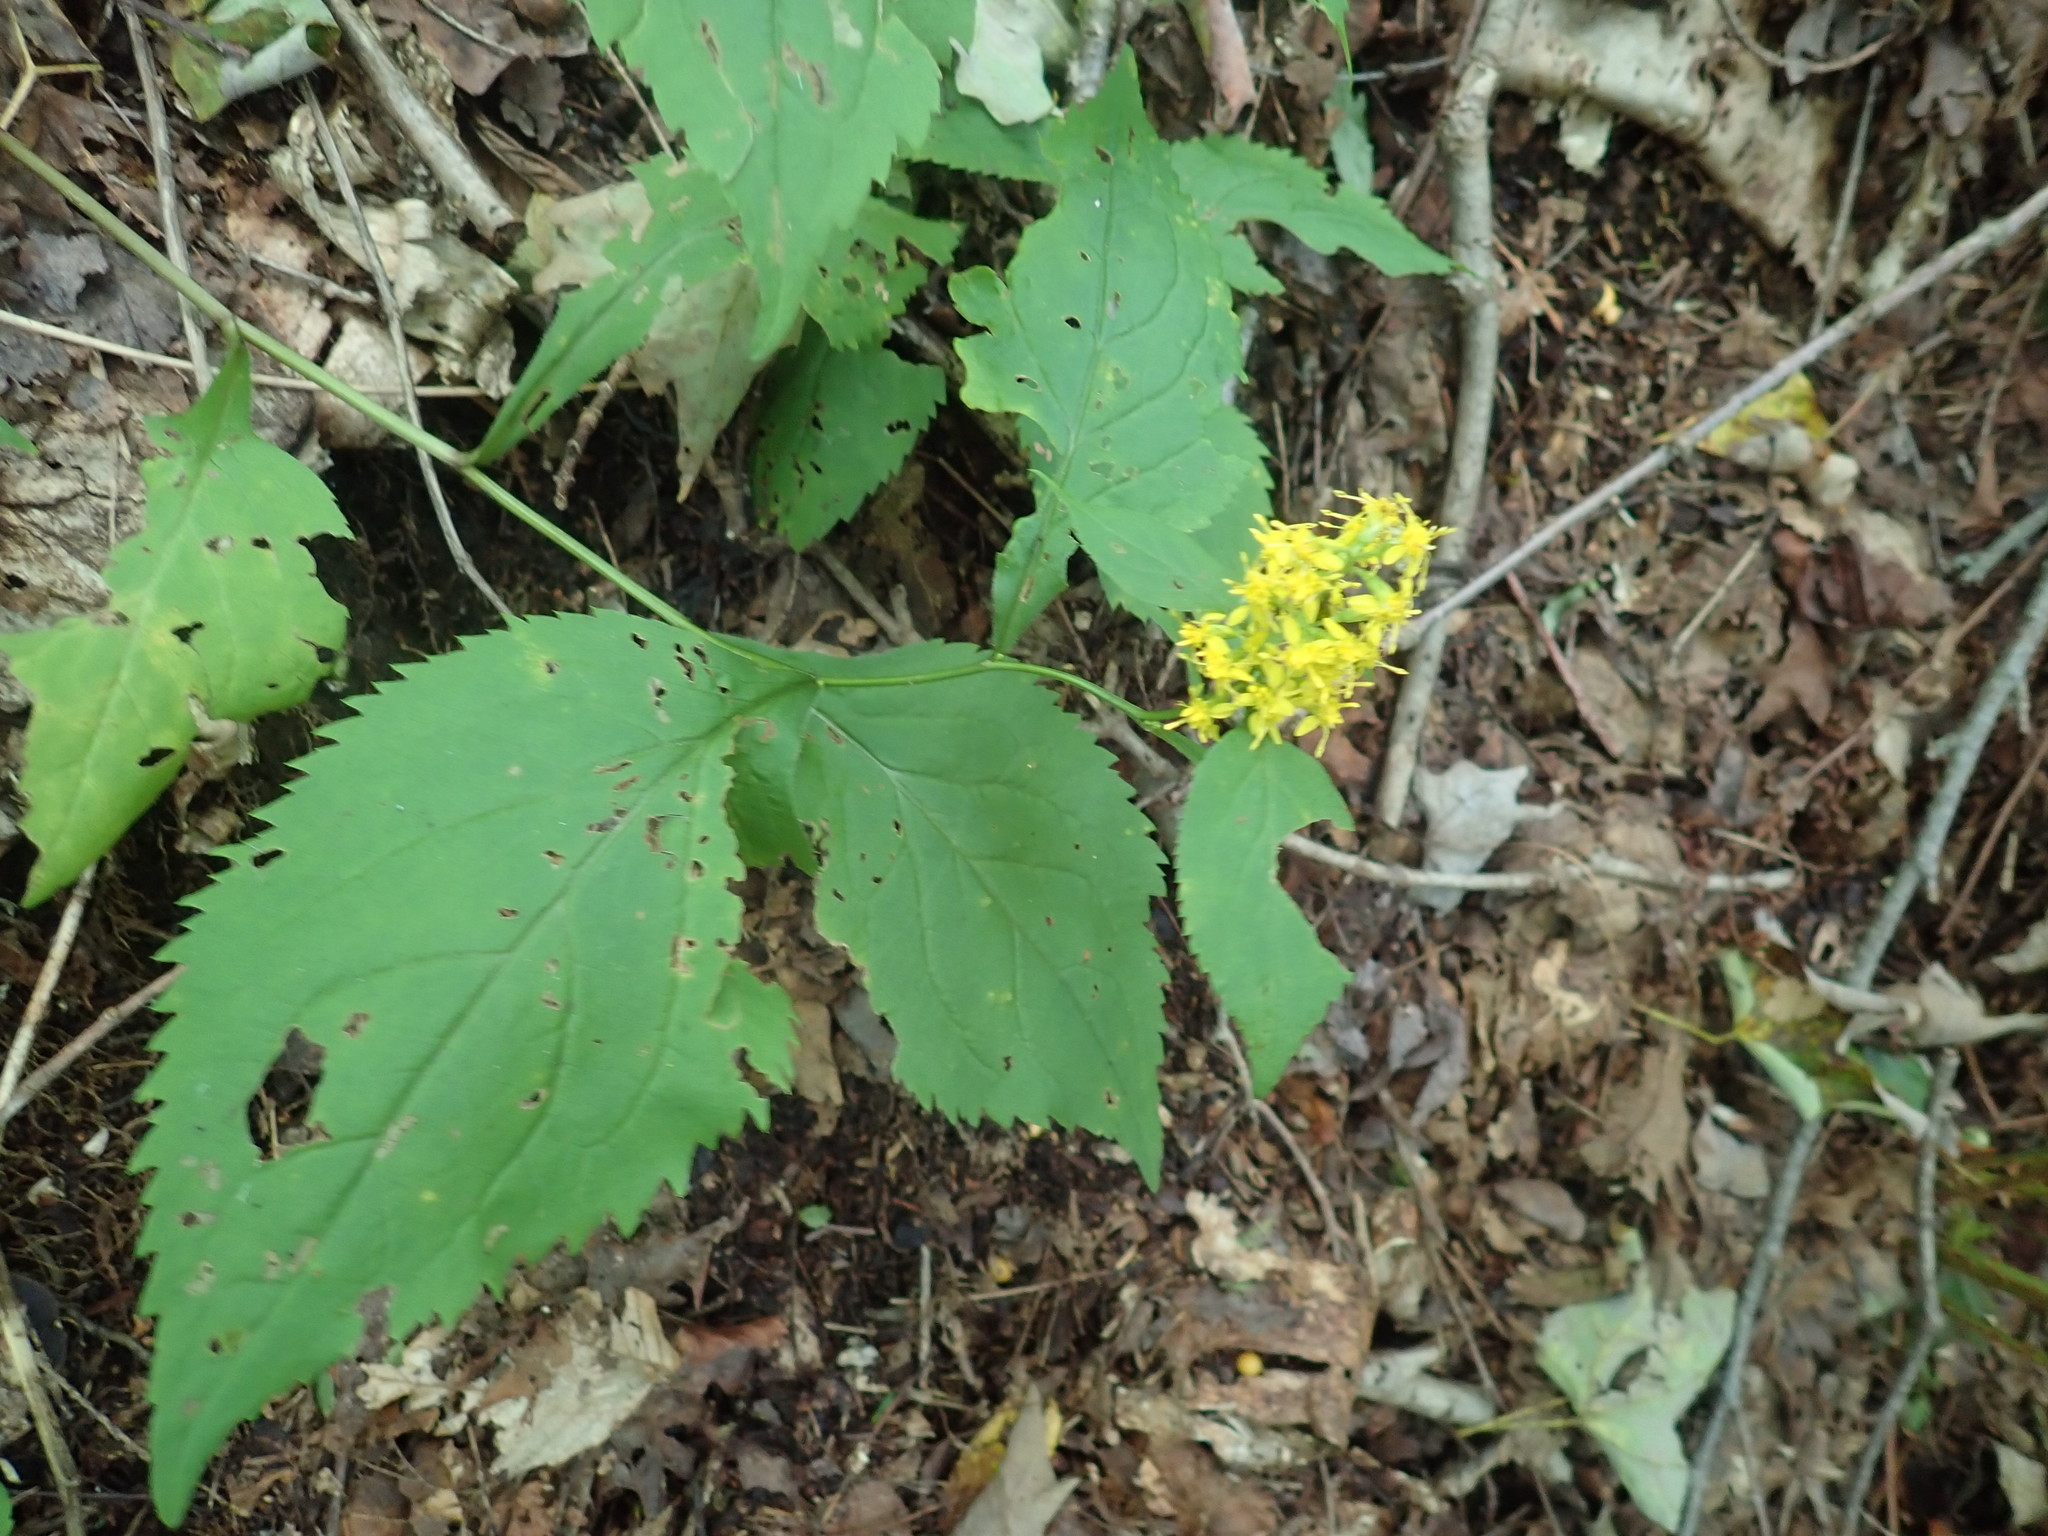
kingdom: Plantae
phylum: Tracheophyta
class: Magnoliopsida
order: Asterales
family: Asteraceae
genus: Solidago
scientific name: Solidago flexicaulis
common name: Zig-zag goldenrod
